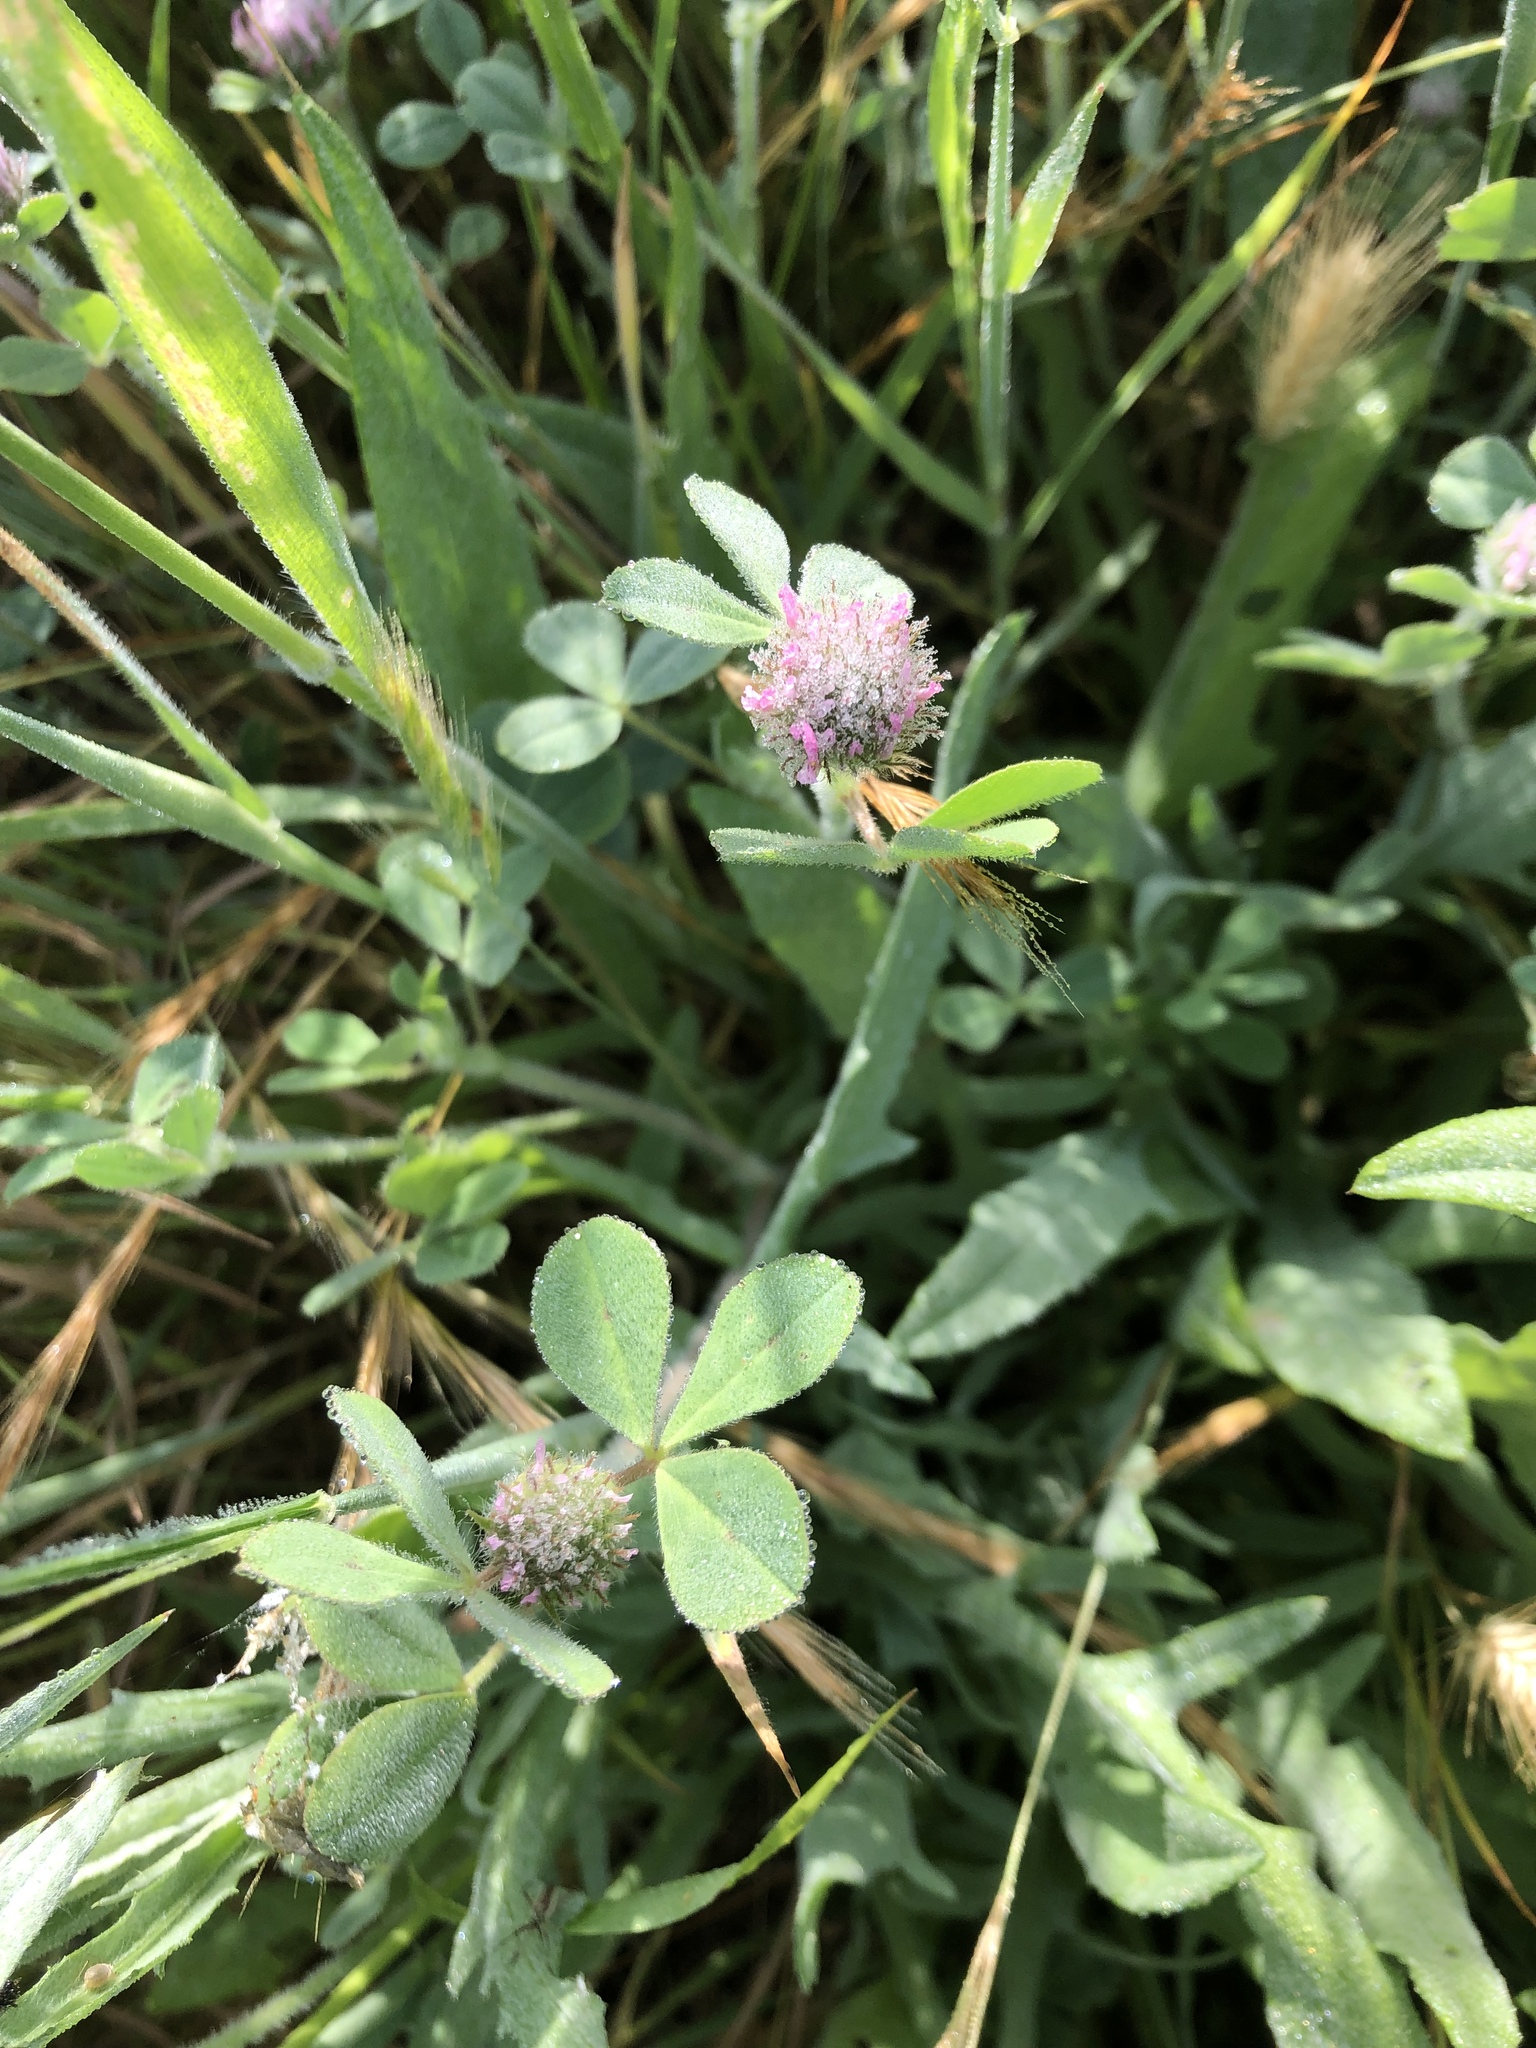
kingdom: Plantae
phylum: Tracheophyta
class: Magnoliopsida
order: Fabales
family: Fabaceae
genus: Trifolium
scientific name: Trifolium hirtum
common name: Rose clover
